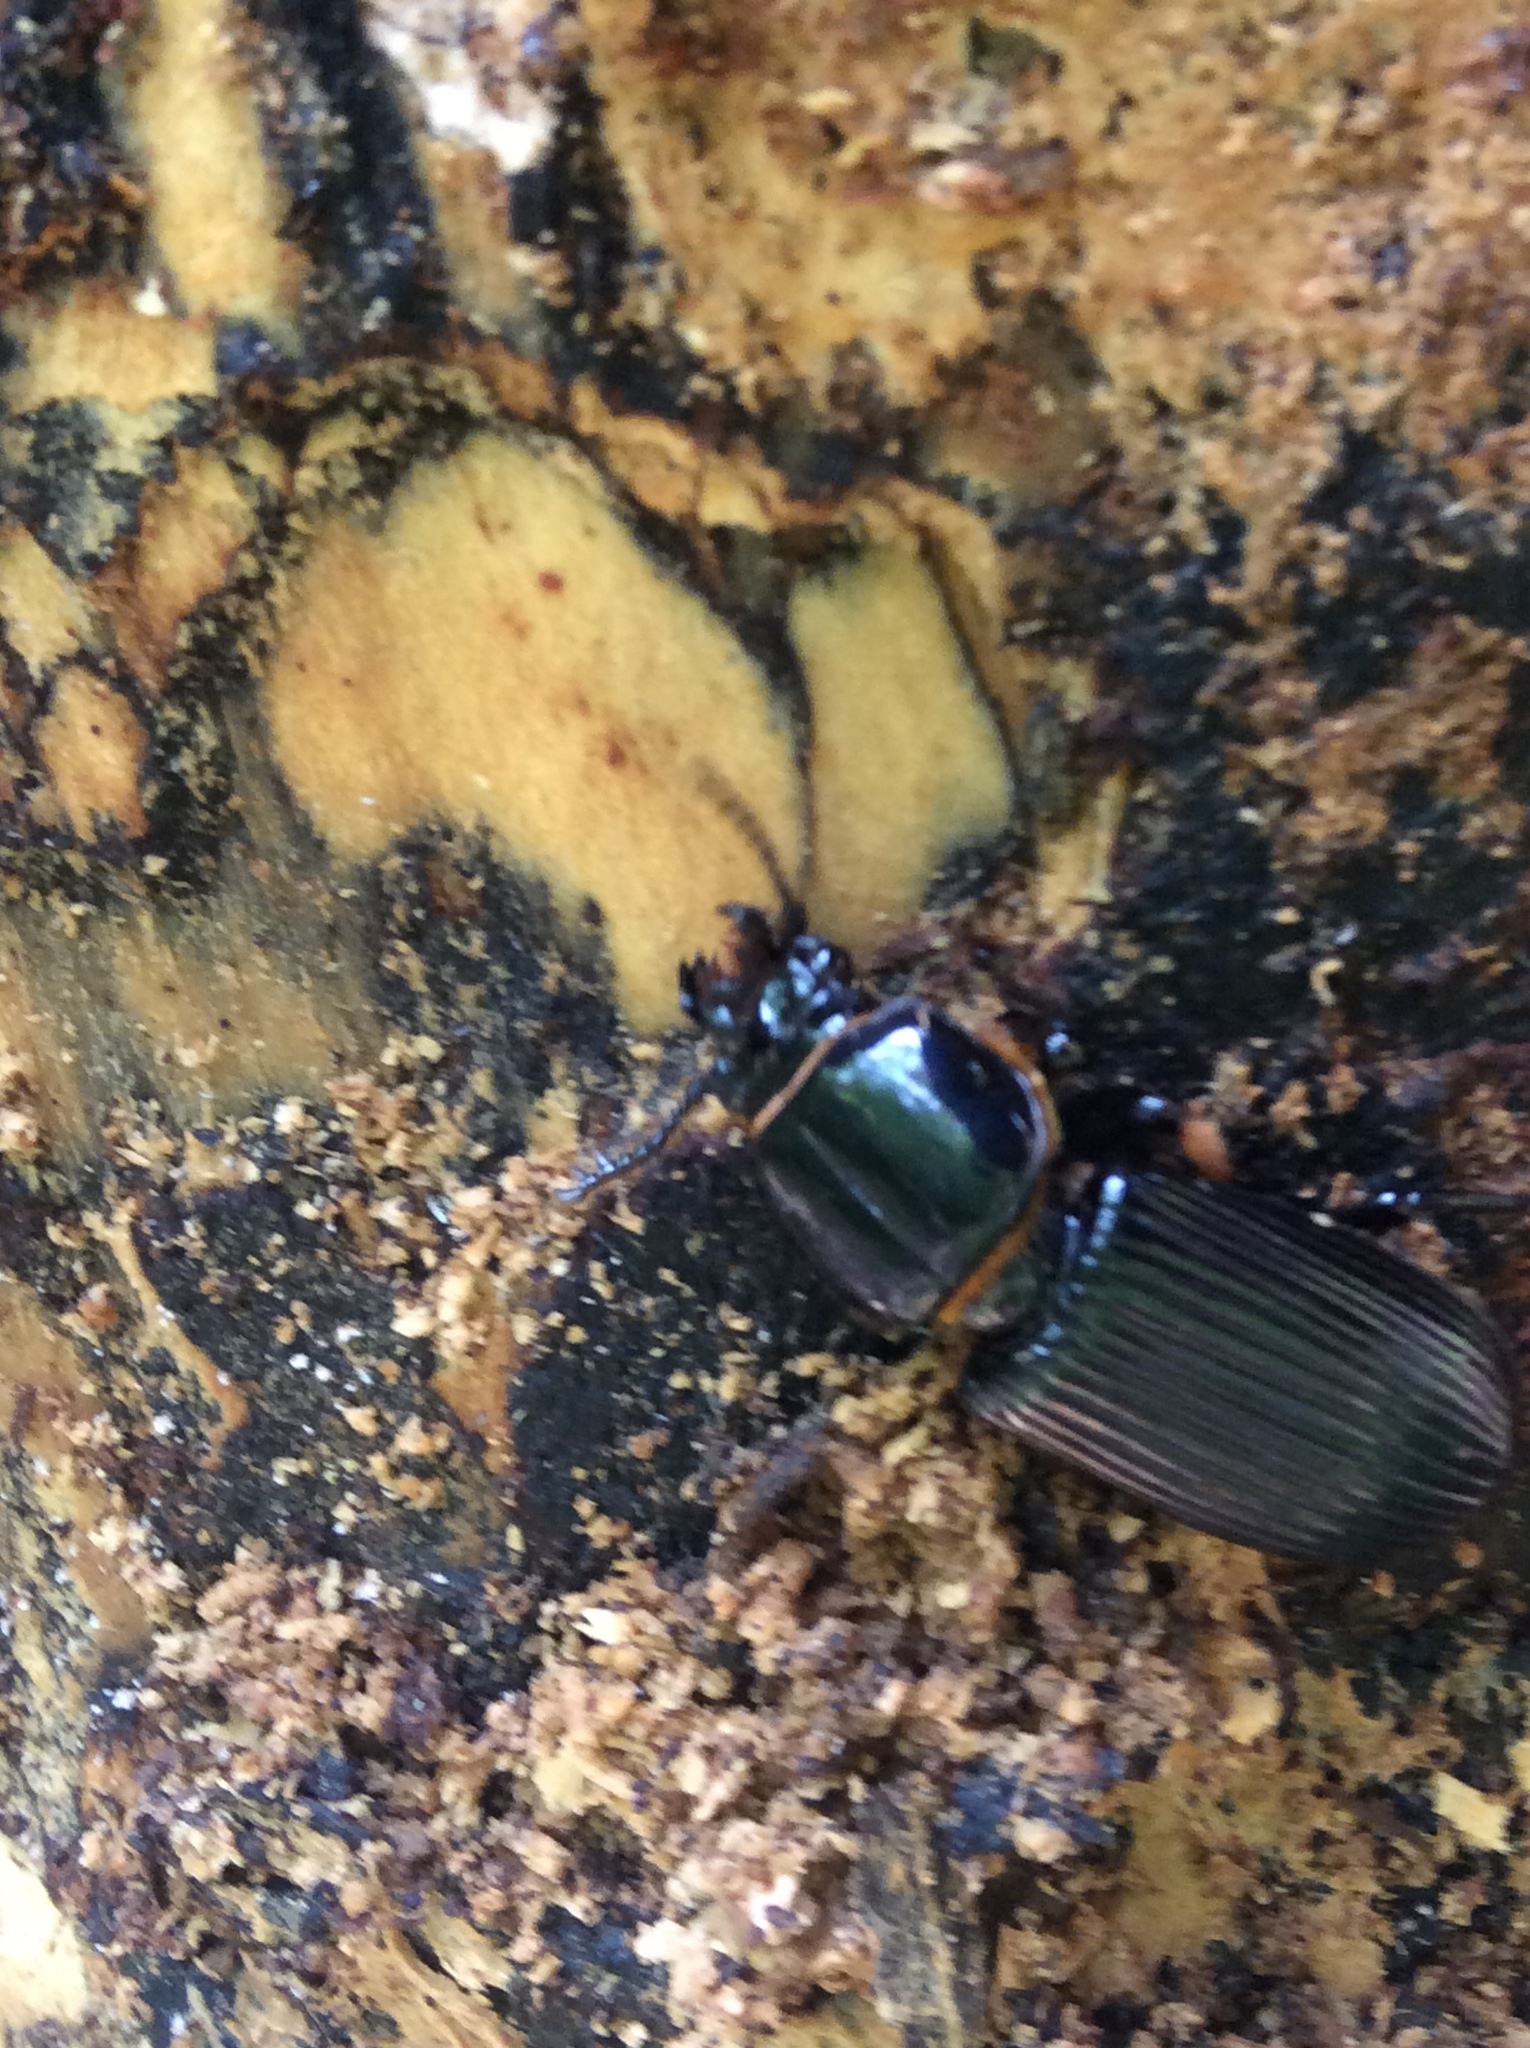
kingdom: Animalia
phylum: Arthropoda
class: Insecta
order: Coleoptera
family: Passalidae
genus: Odontotaenius
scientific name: Odontotaenius disjunctus
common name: Patent leather beetle
